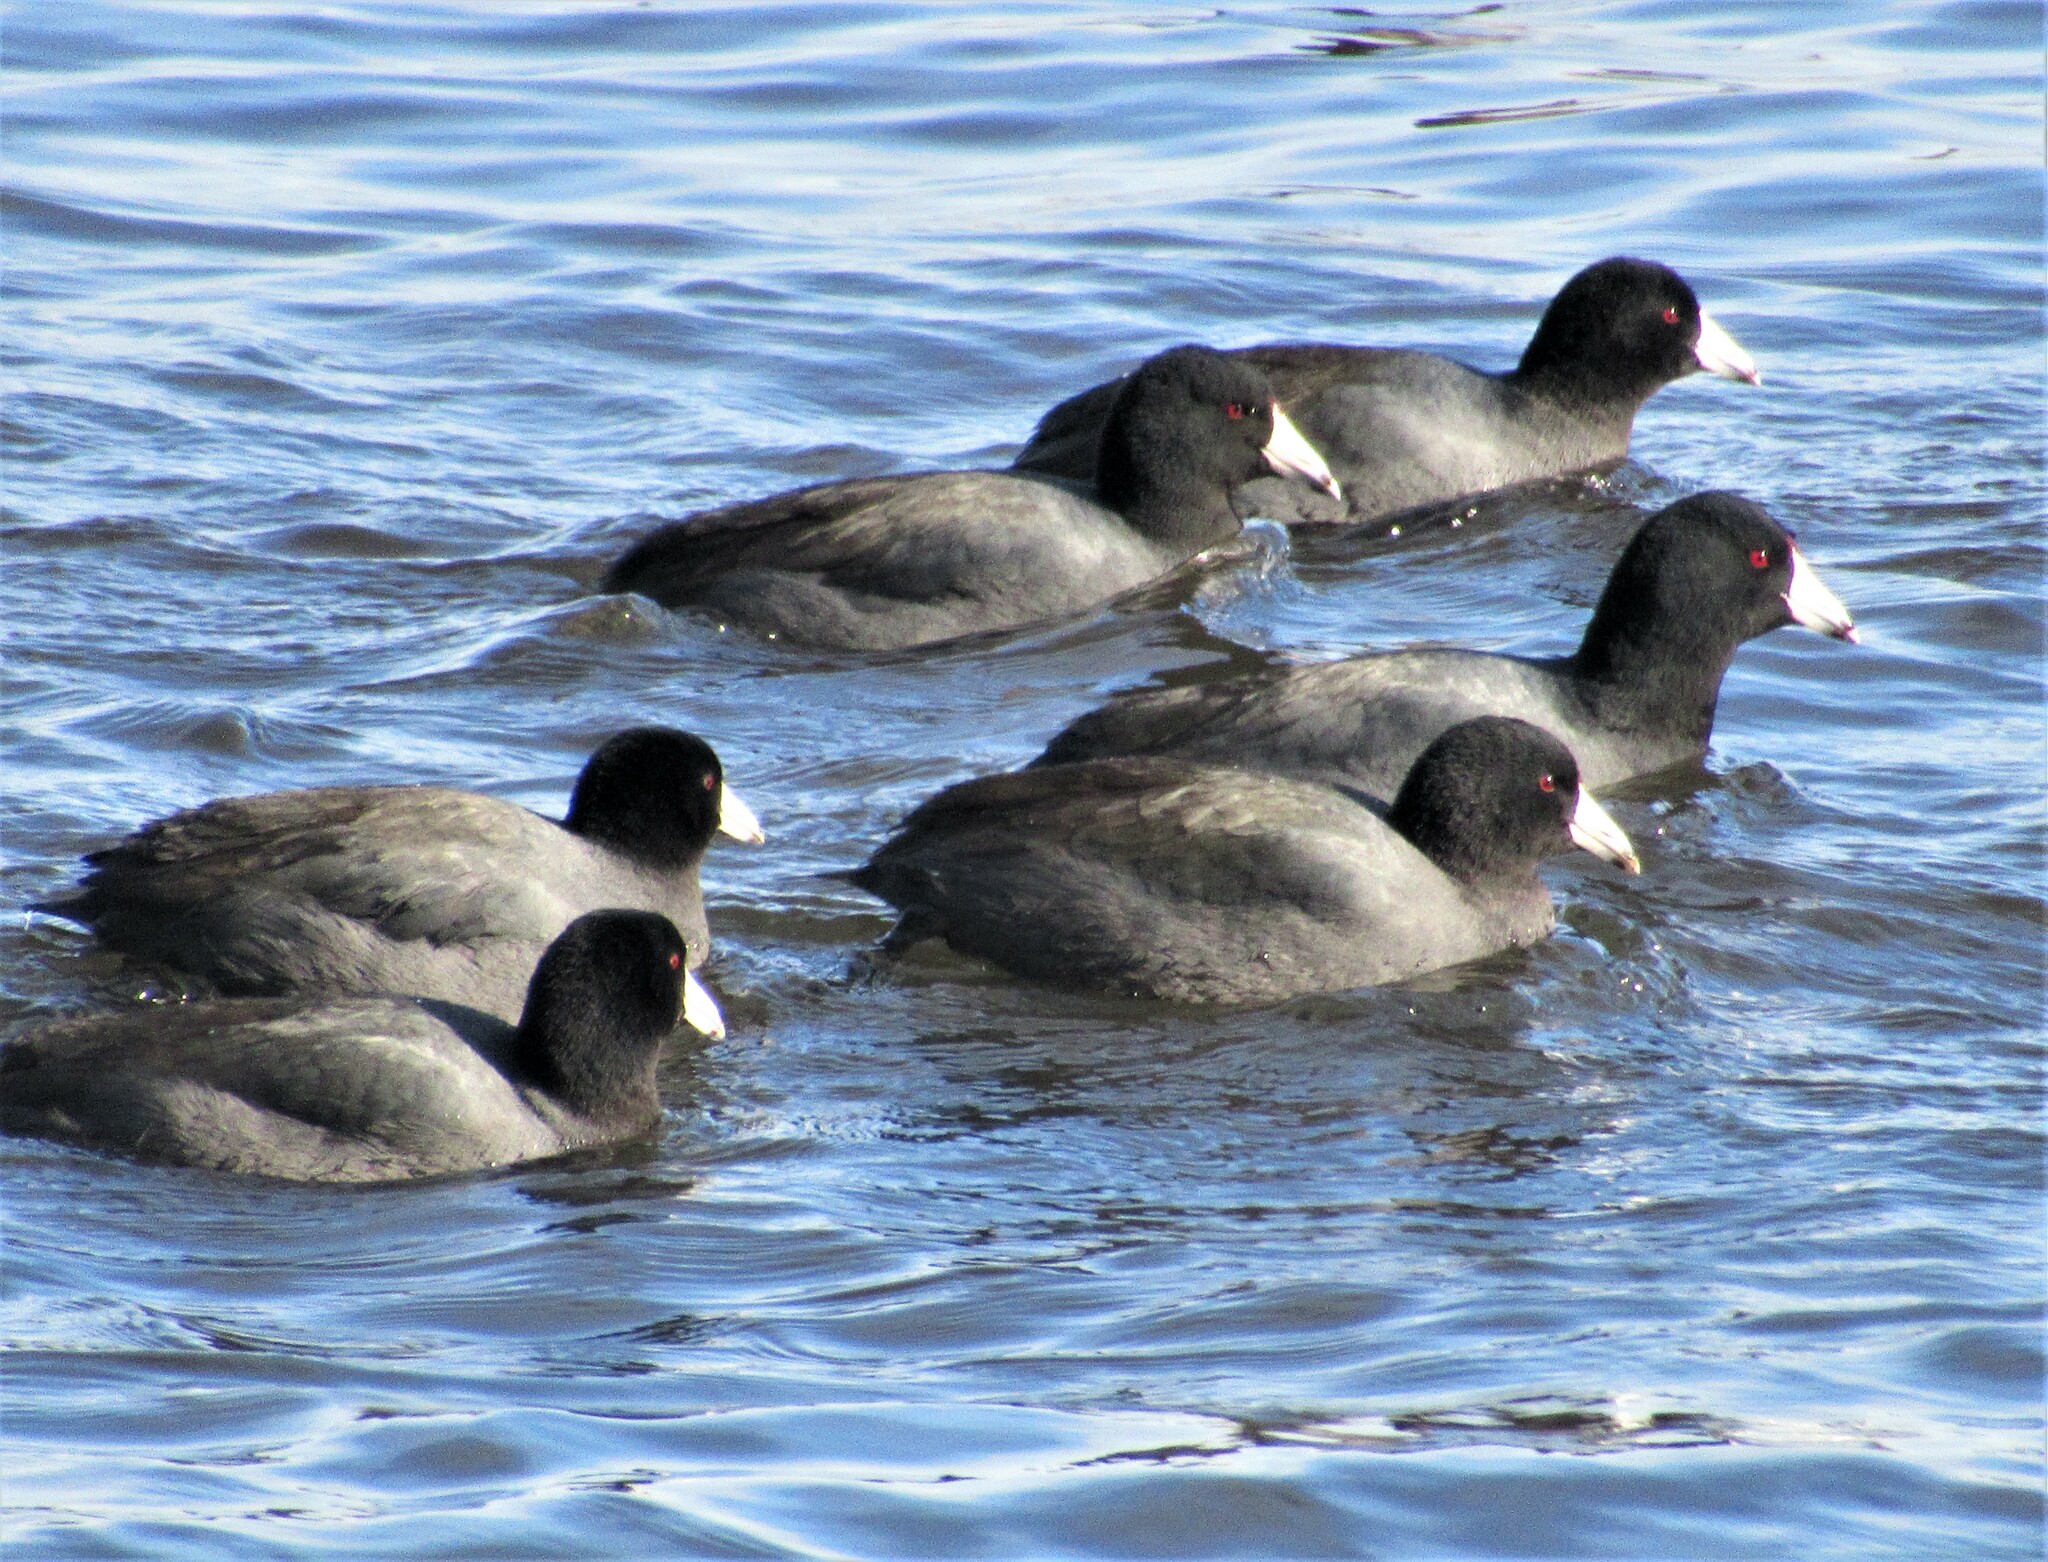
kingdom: Animalia
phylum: Chordata
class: Aves
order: Gruiformes
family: Rallidae
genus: Fulica
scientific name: Fulica americana
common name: American coot
